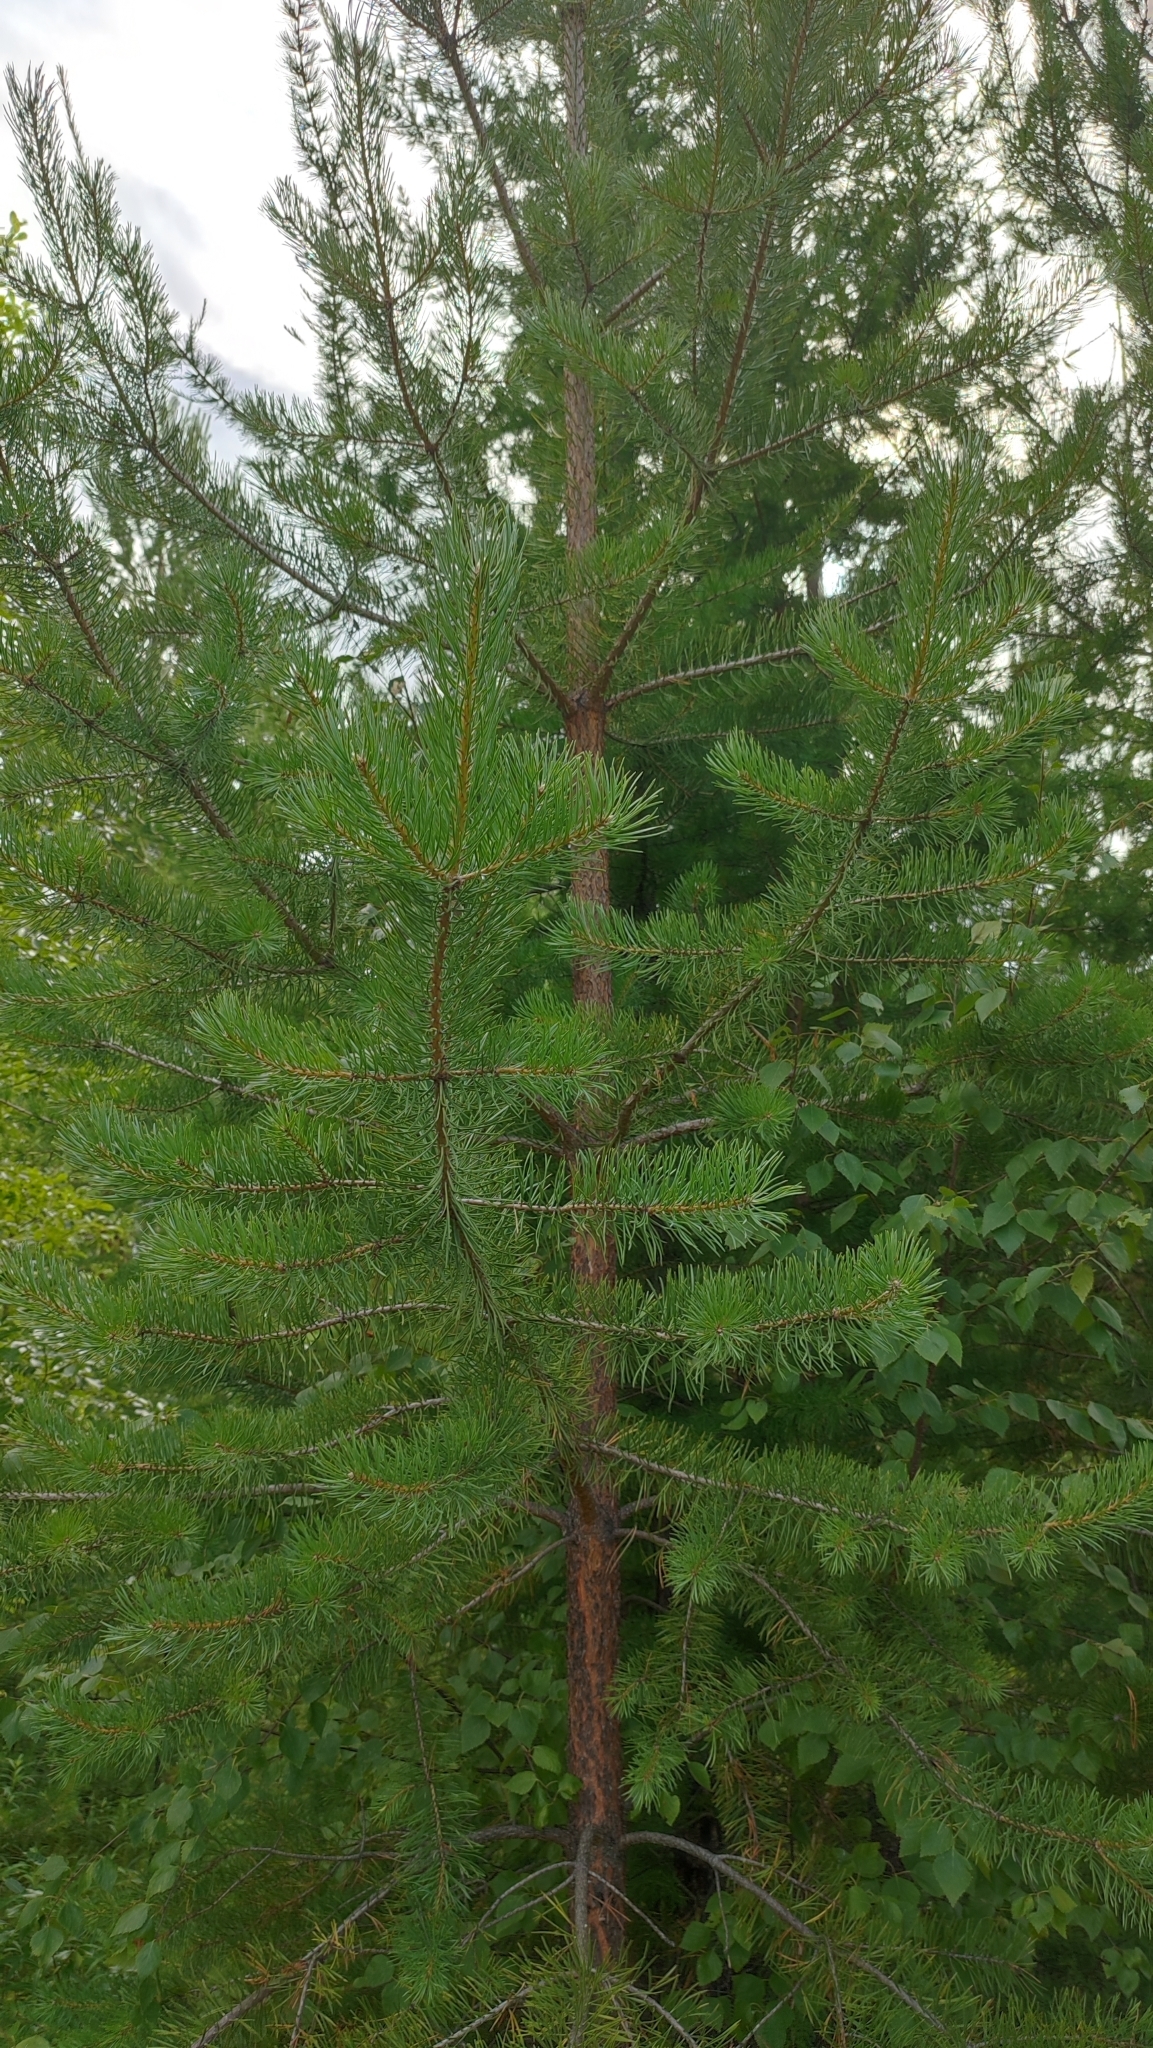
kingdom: Plantae
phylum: Tracheophyta
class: Pinopsida
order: Pinales
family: Pinaceae
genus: Pinus
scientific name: Pinus sylvestris
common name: Scots pine
